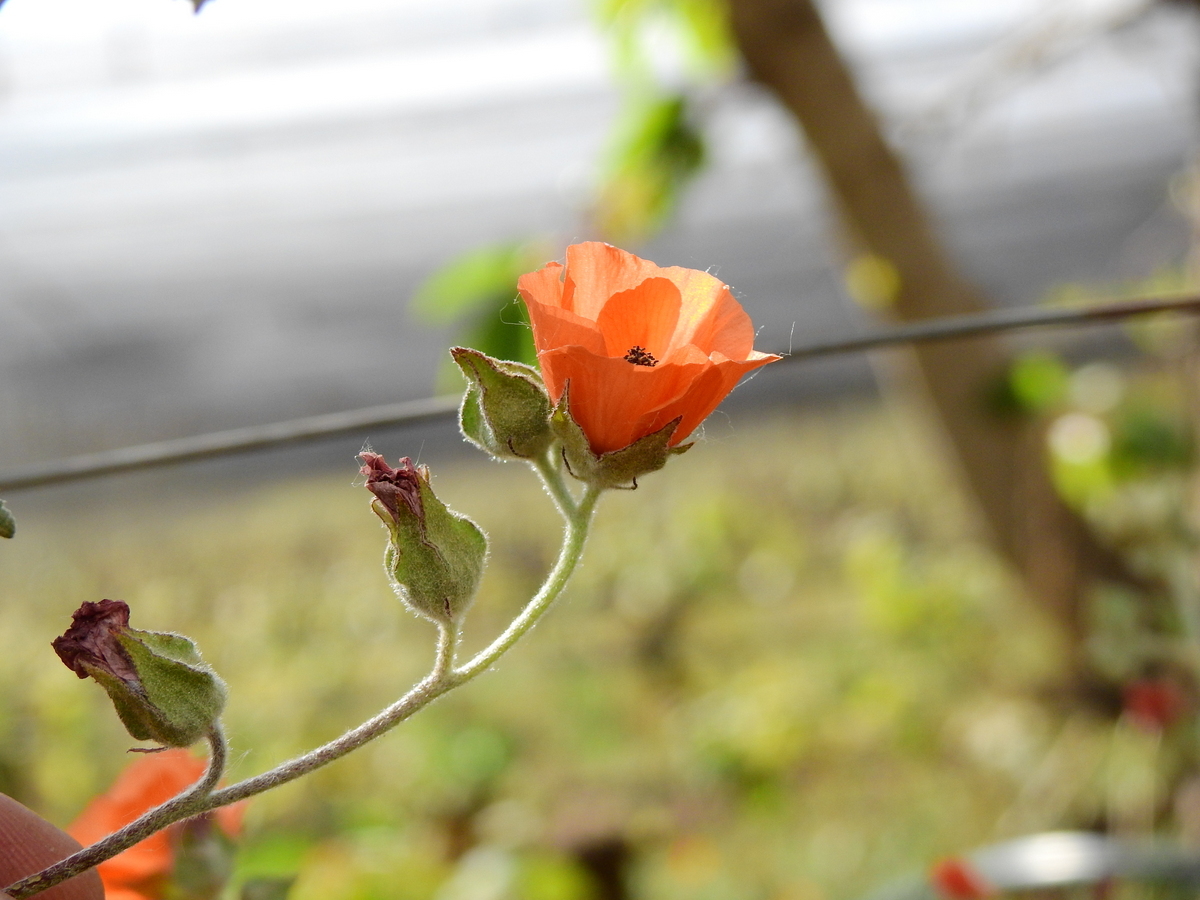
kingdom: Plantae
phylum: Tracheophyta
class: Magnoliopsida
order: Malvales
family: Malvaceae
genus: Sphaeralcea
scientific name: Sphaeralcea miniata
